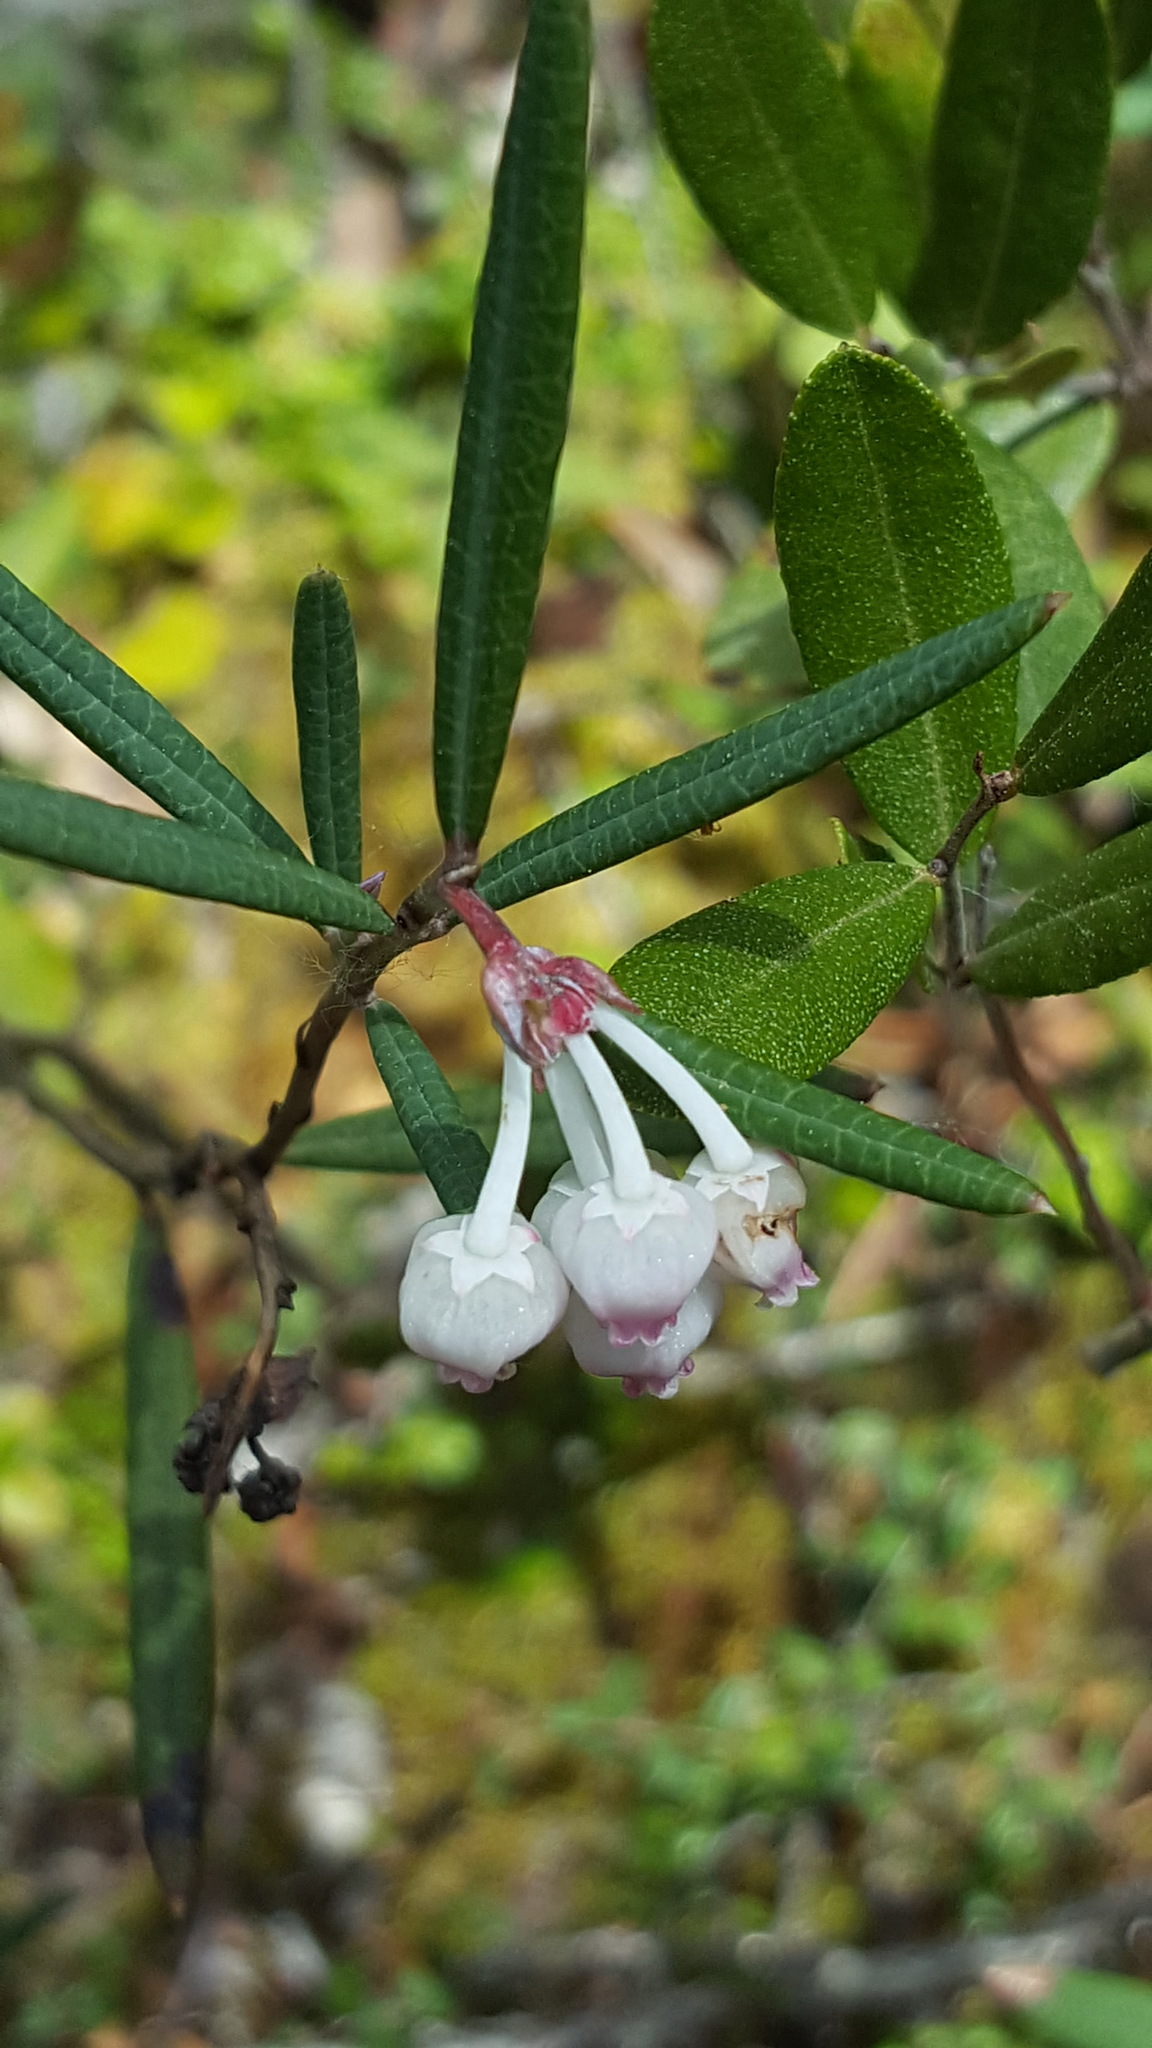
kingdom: Plantae
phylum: Tracheophyta
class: Magnoliopsida
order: Ericales
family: Ericaceae
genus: Andromeda
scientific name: Andromeda polifolia
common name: Bog-rosemary
